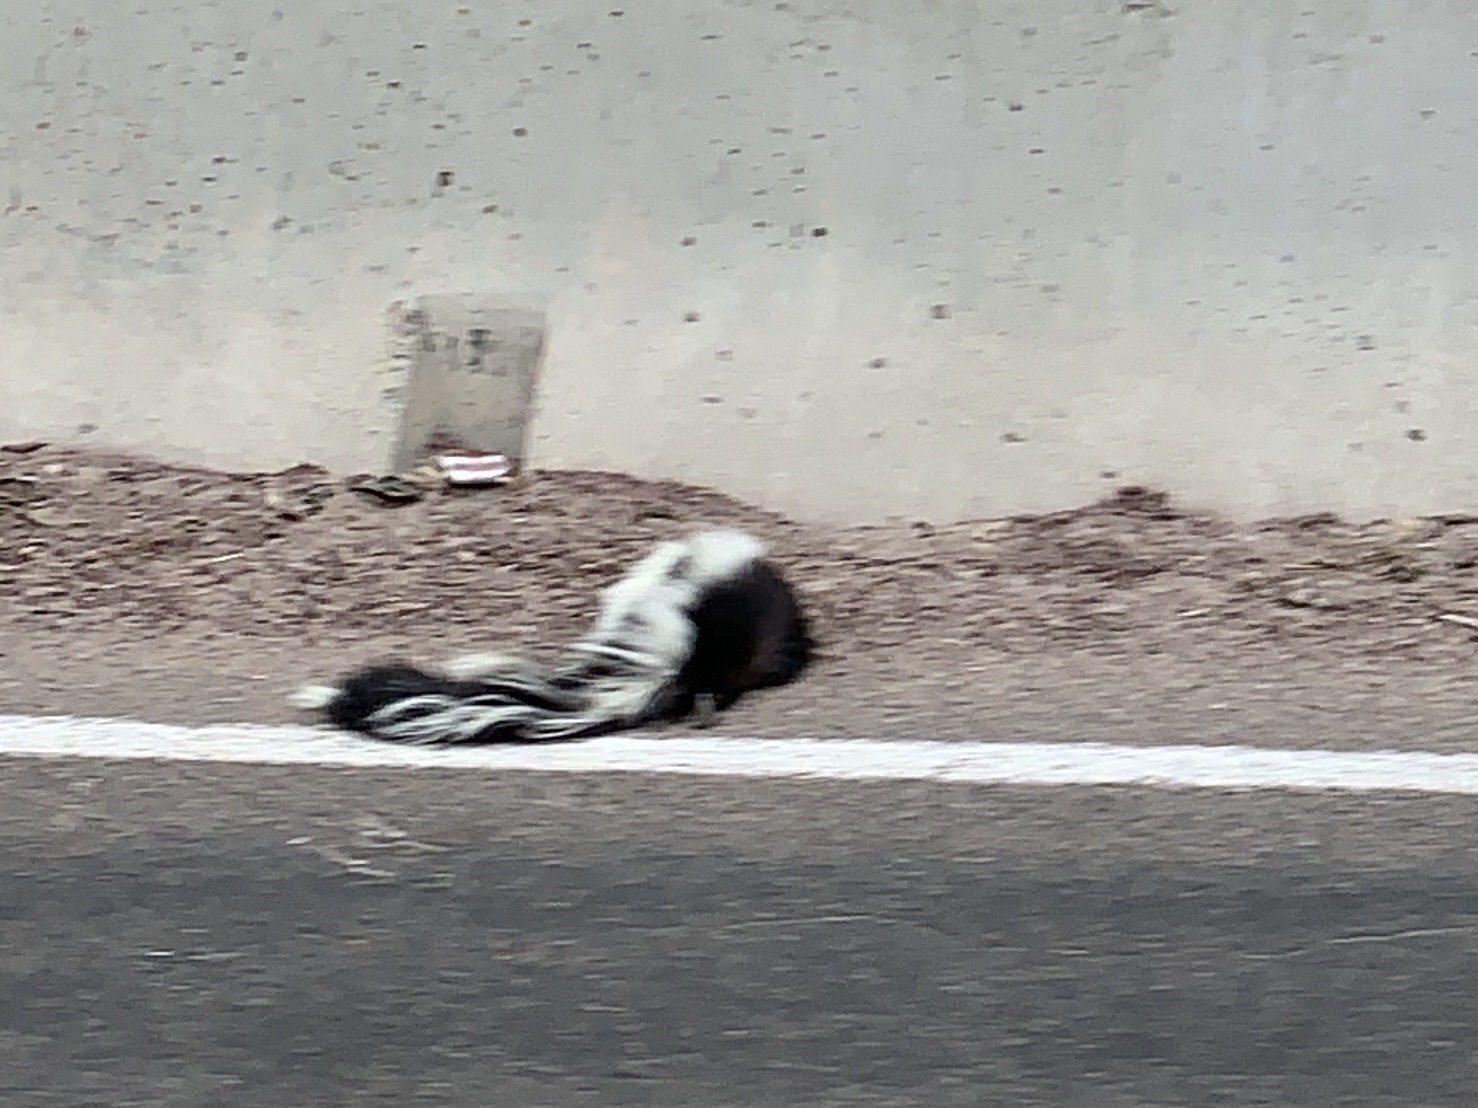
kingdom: Animalia
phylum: Chordata
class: Mammalia
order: Carnivora
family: Mephitidae
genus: Mephitis
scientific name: Mephitis mephitis
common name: Striped skunk
